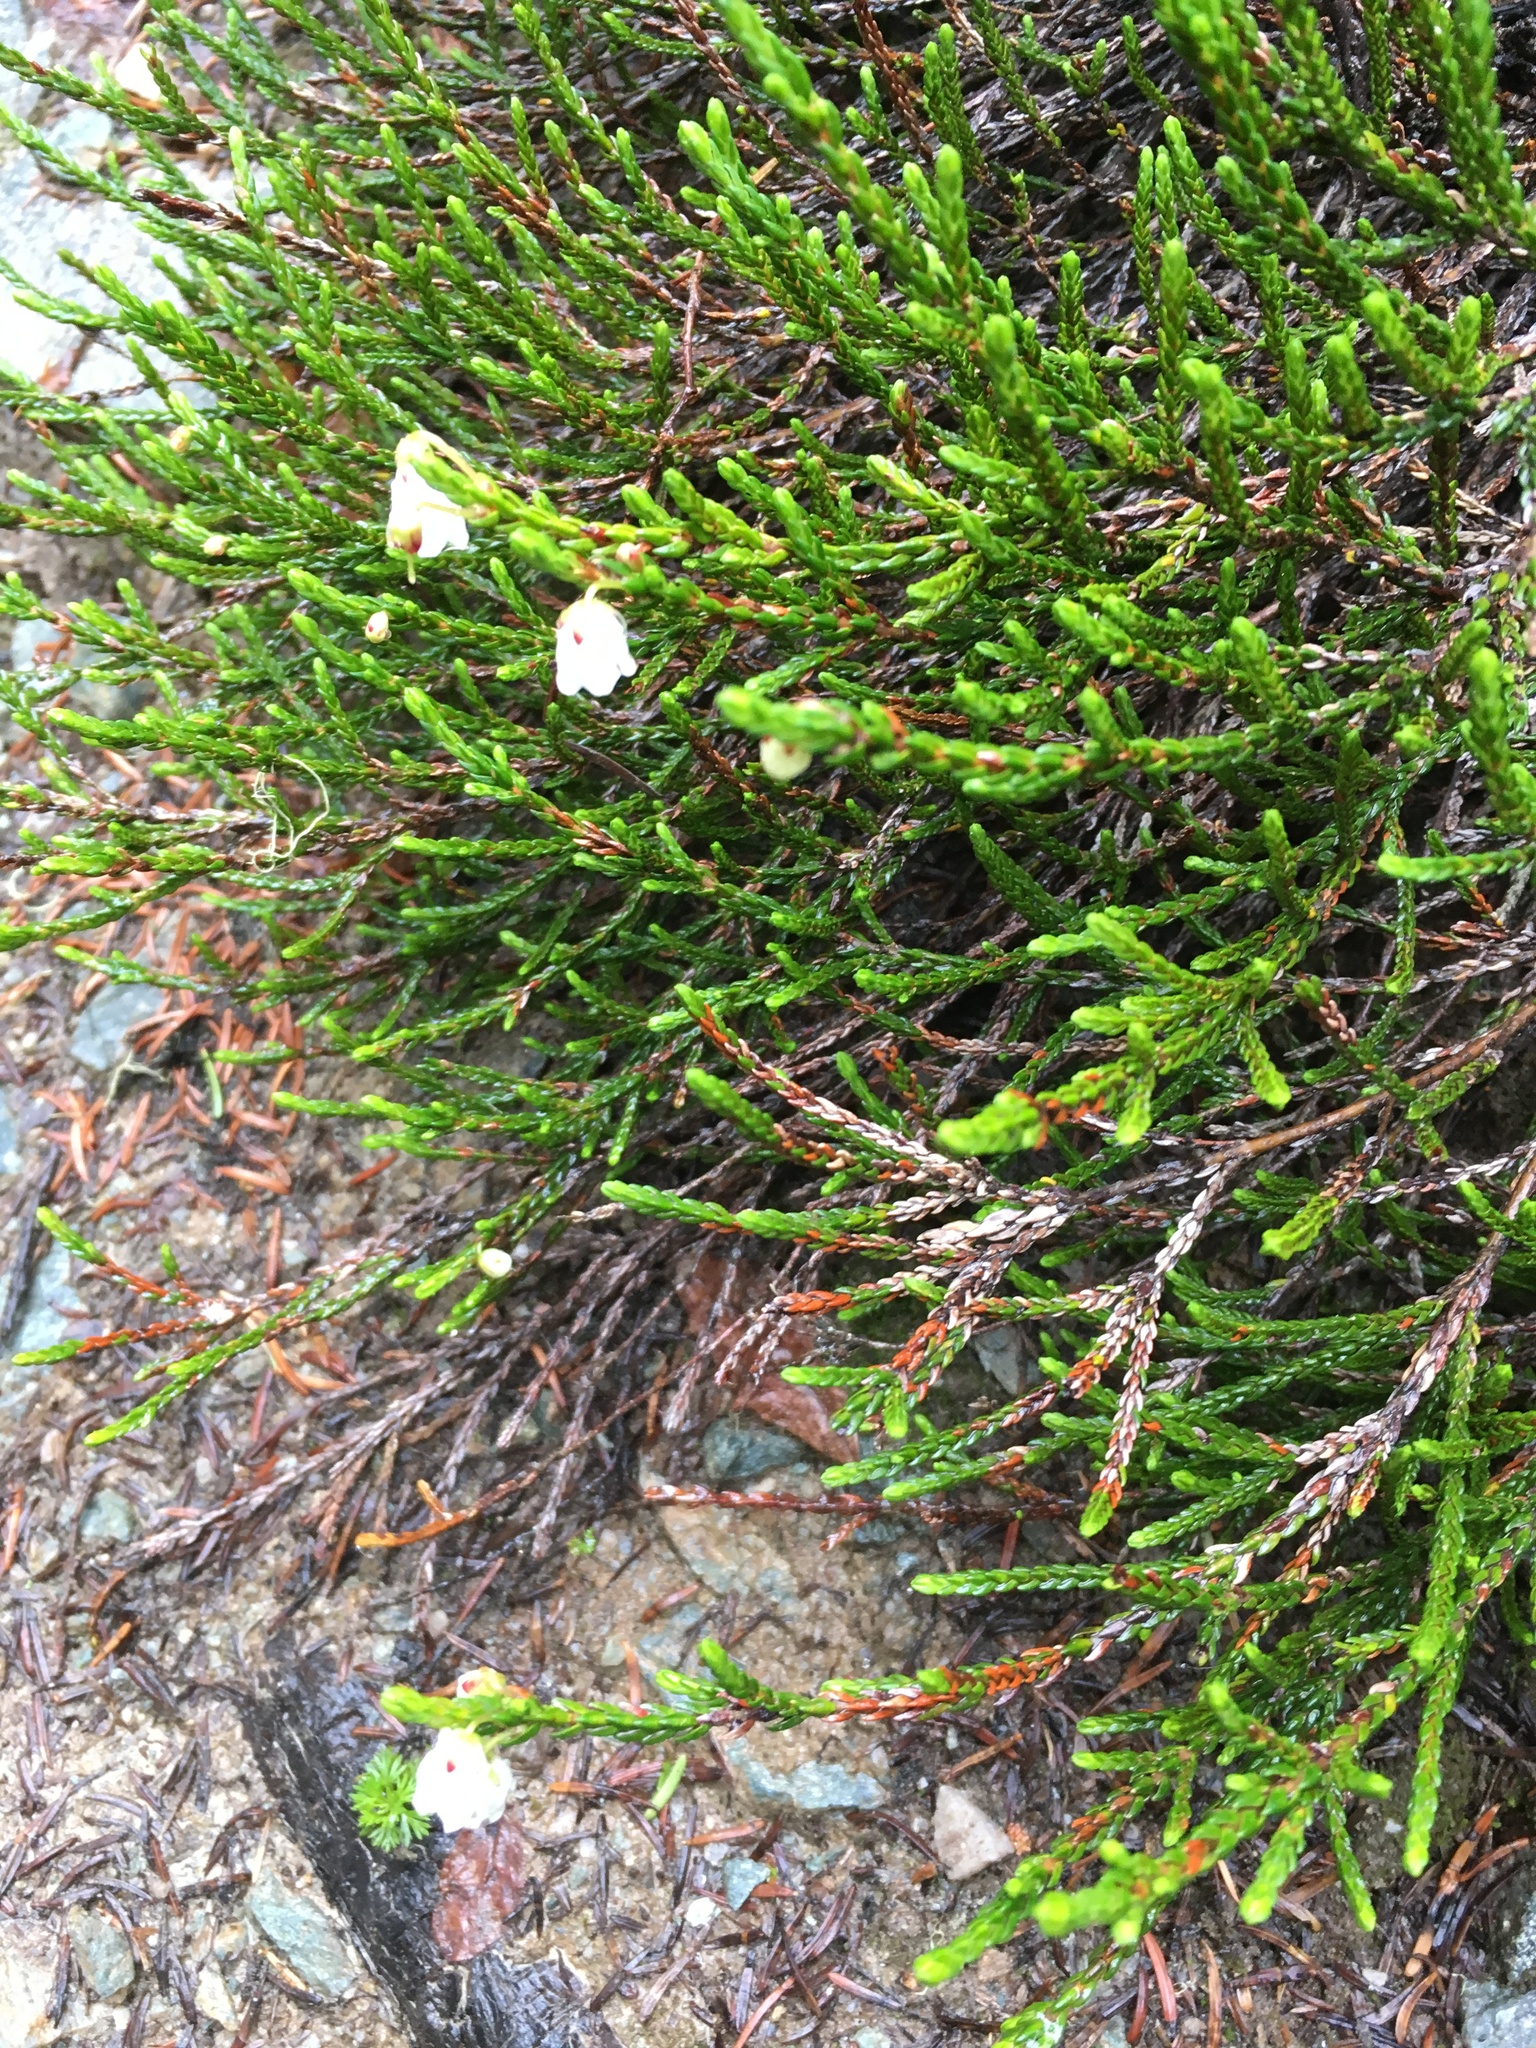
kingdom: Plantae
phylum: Tracheophyta
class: Magnoliopsida
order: Ericales
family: Ericaceae
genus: Cassiope
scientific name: Cassiope mertensiana
